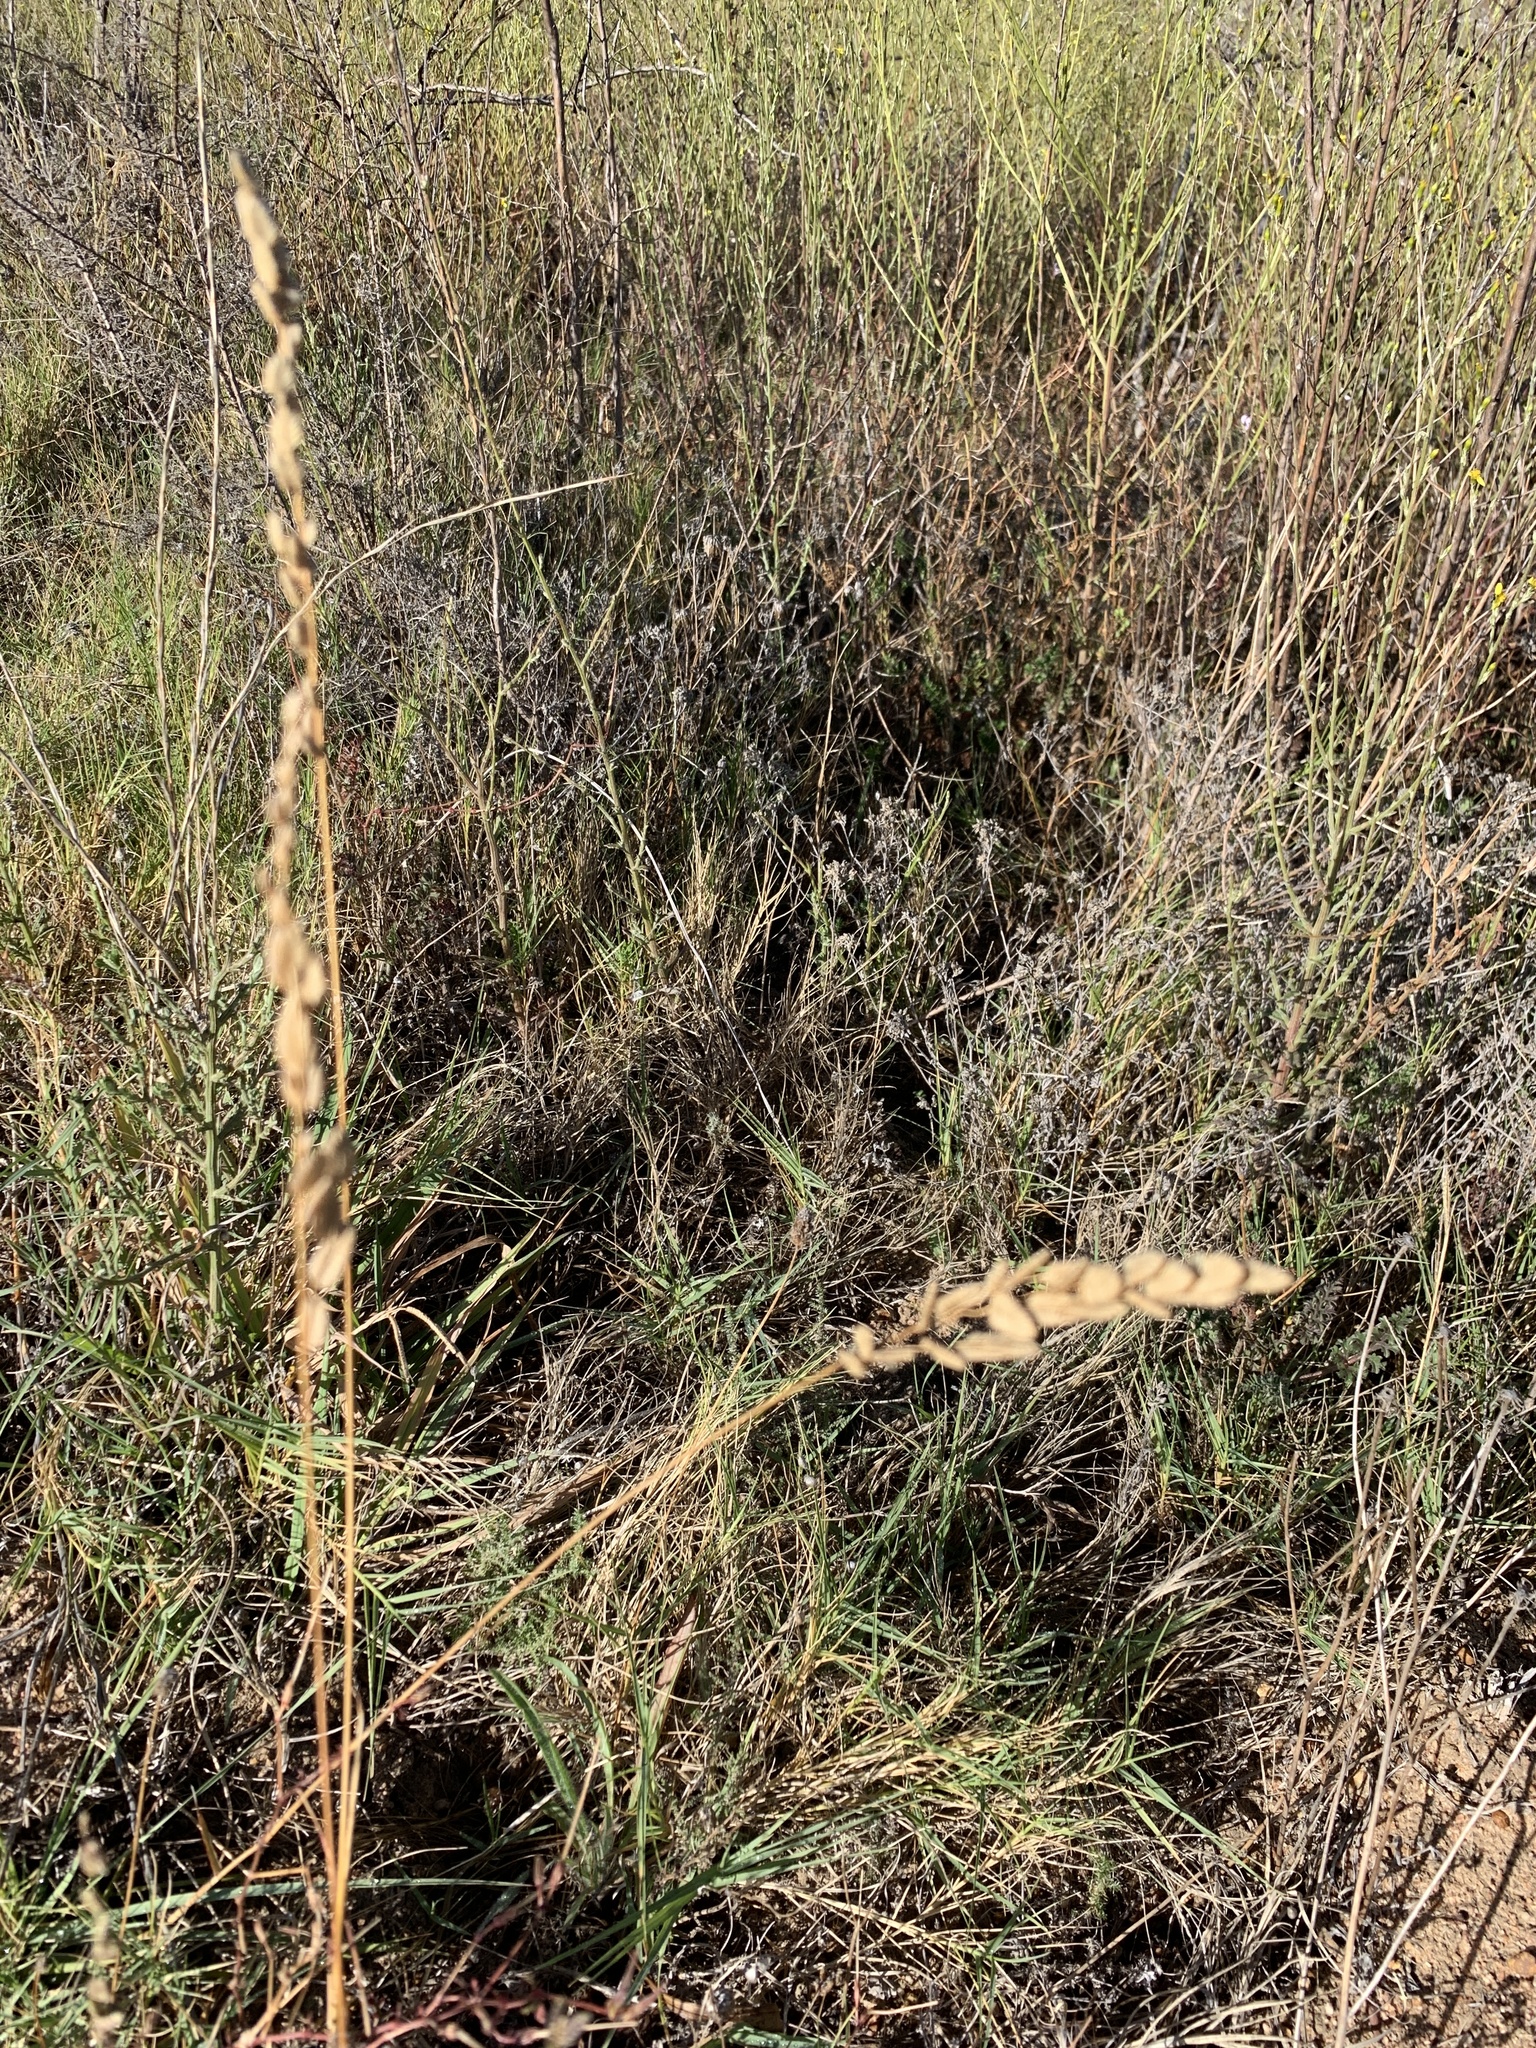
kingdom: Plantae
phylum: Tracheophyta
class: Liliopsida
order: Poales
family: Poaceae
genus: Eragrostis
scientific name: Eragrostis capensis
